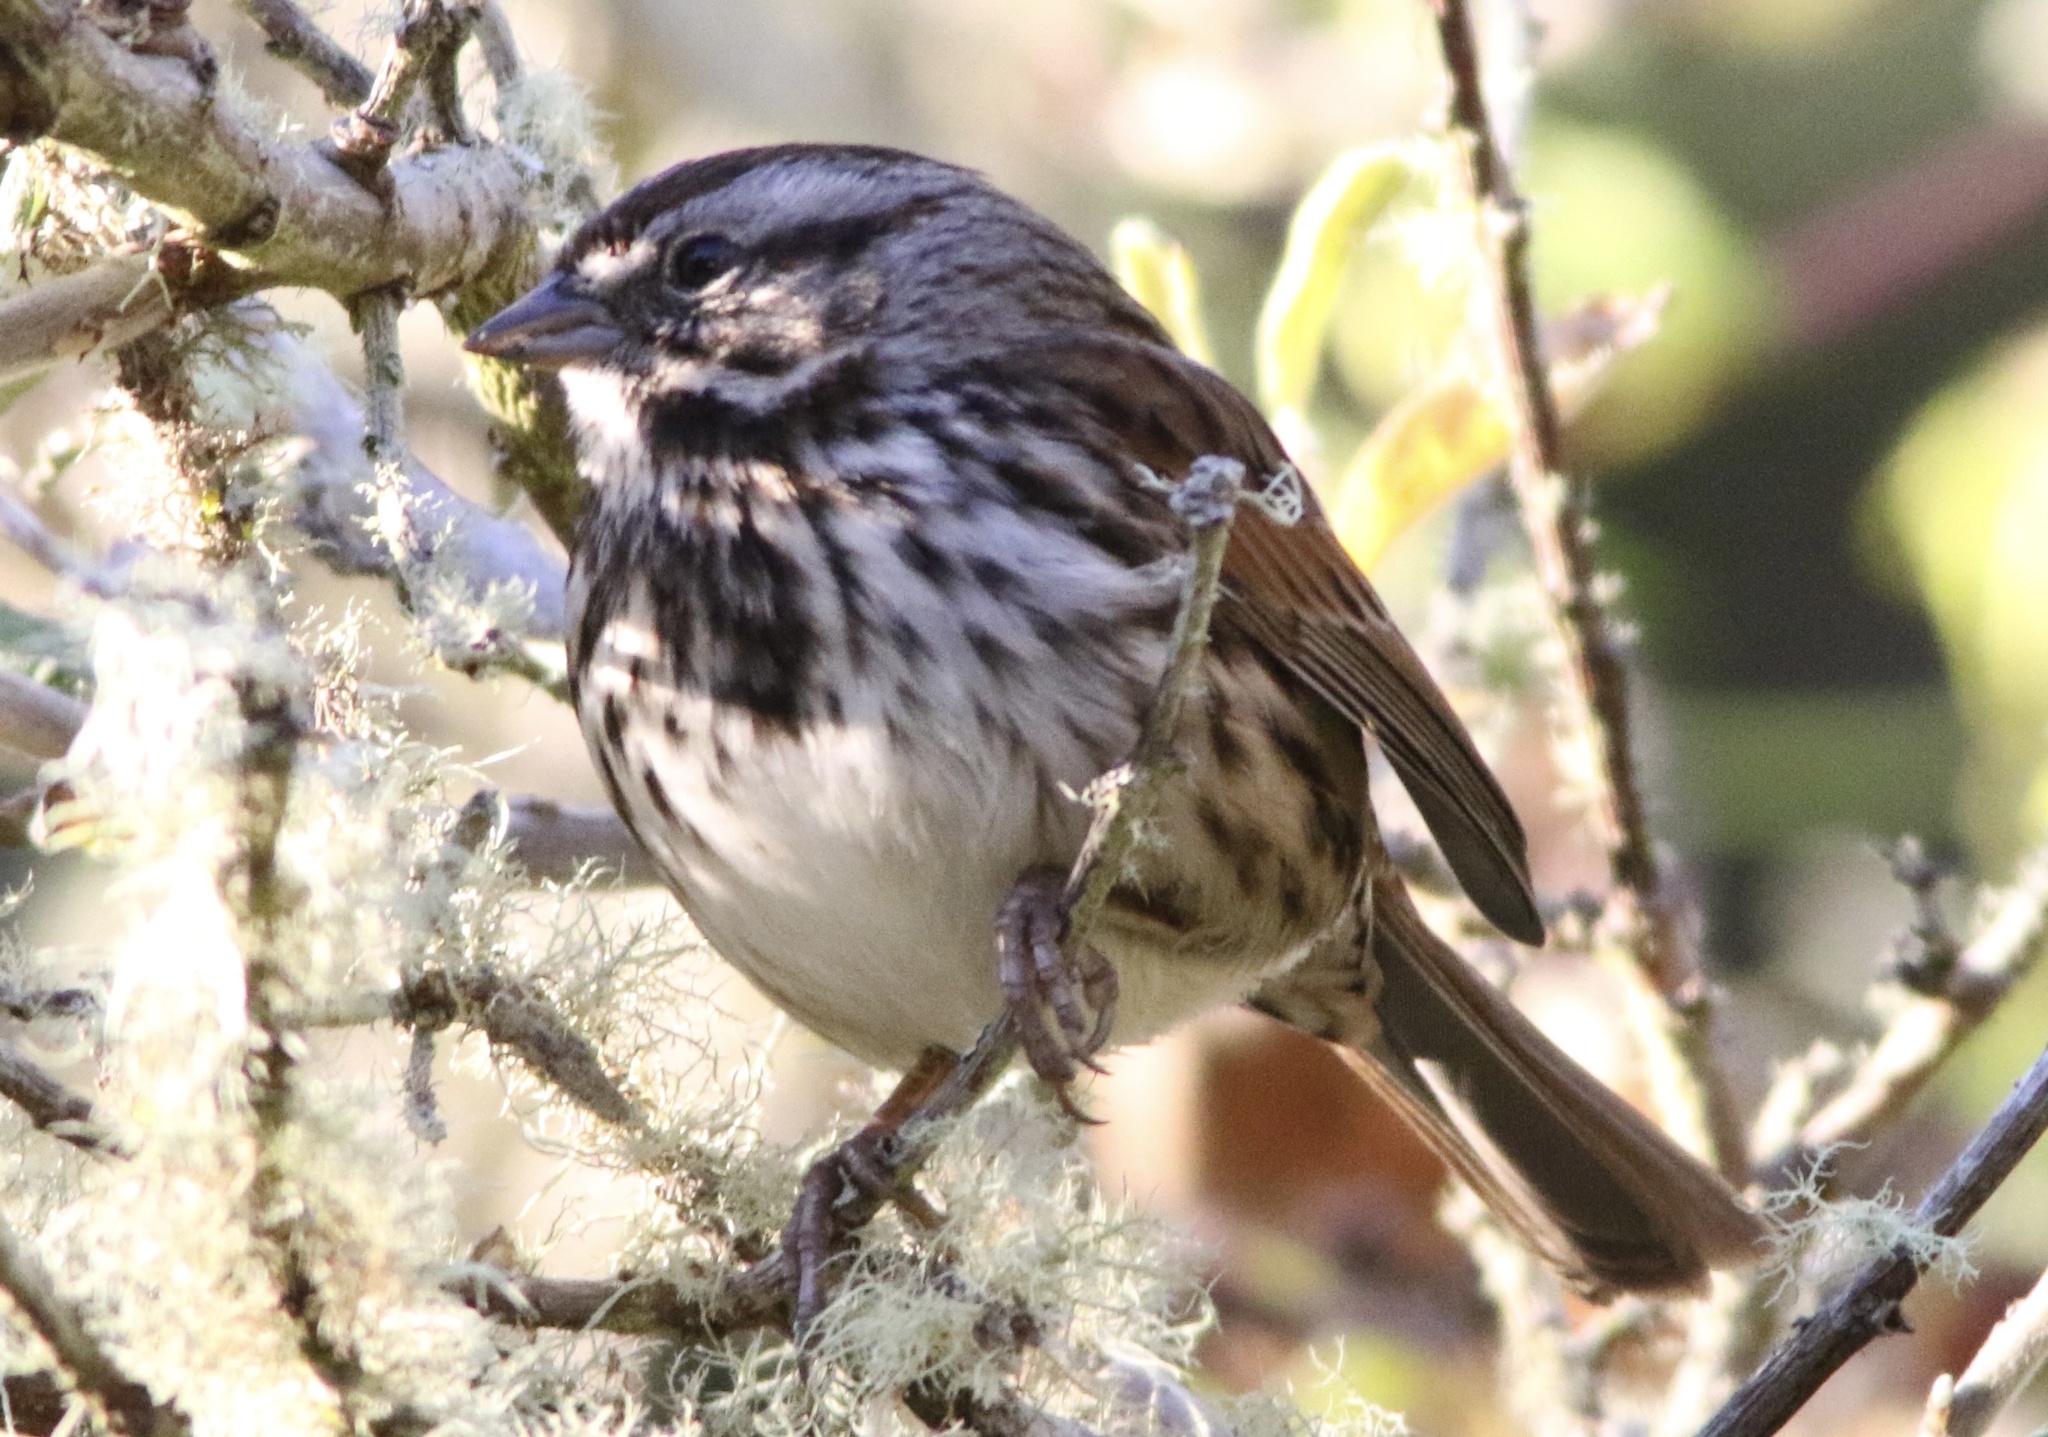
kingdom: Animalia
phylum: Chordata
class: Aves
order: Passeriformes
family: Passerellidae
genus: Melospiza
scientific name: Melospiza melodia
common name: Song sparrow
